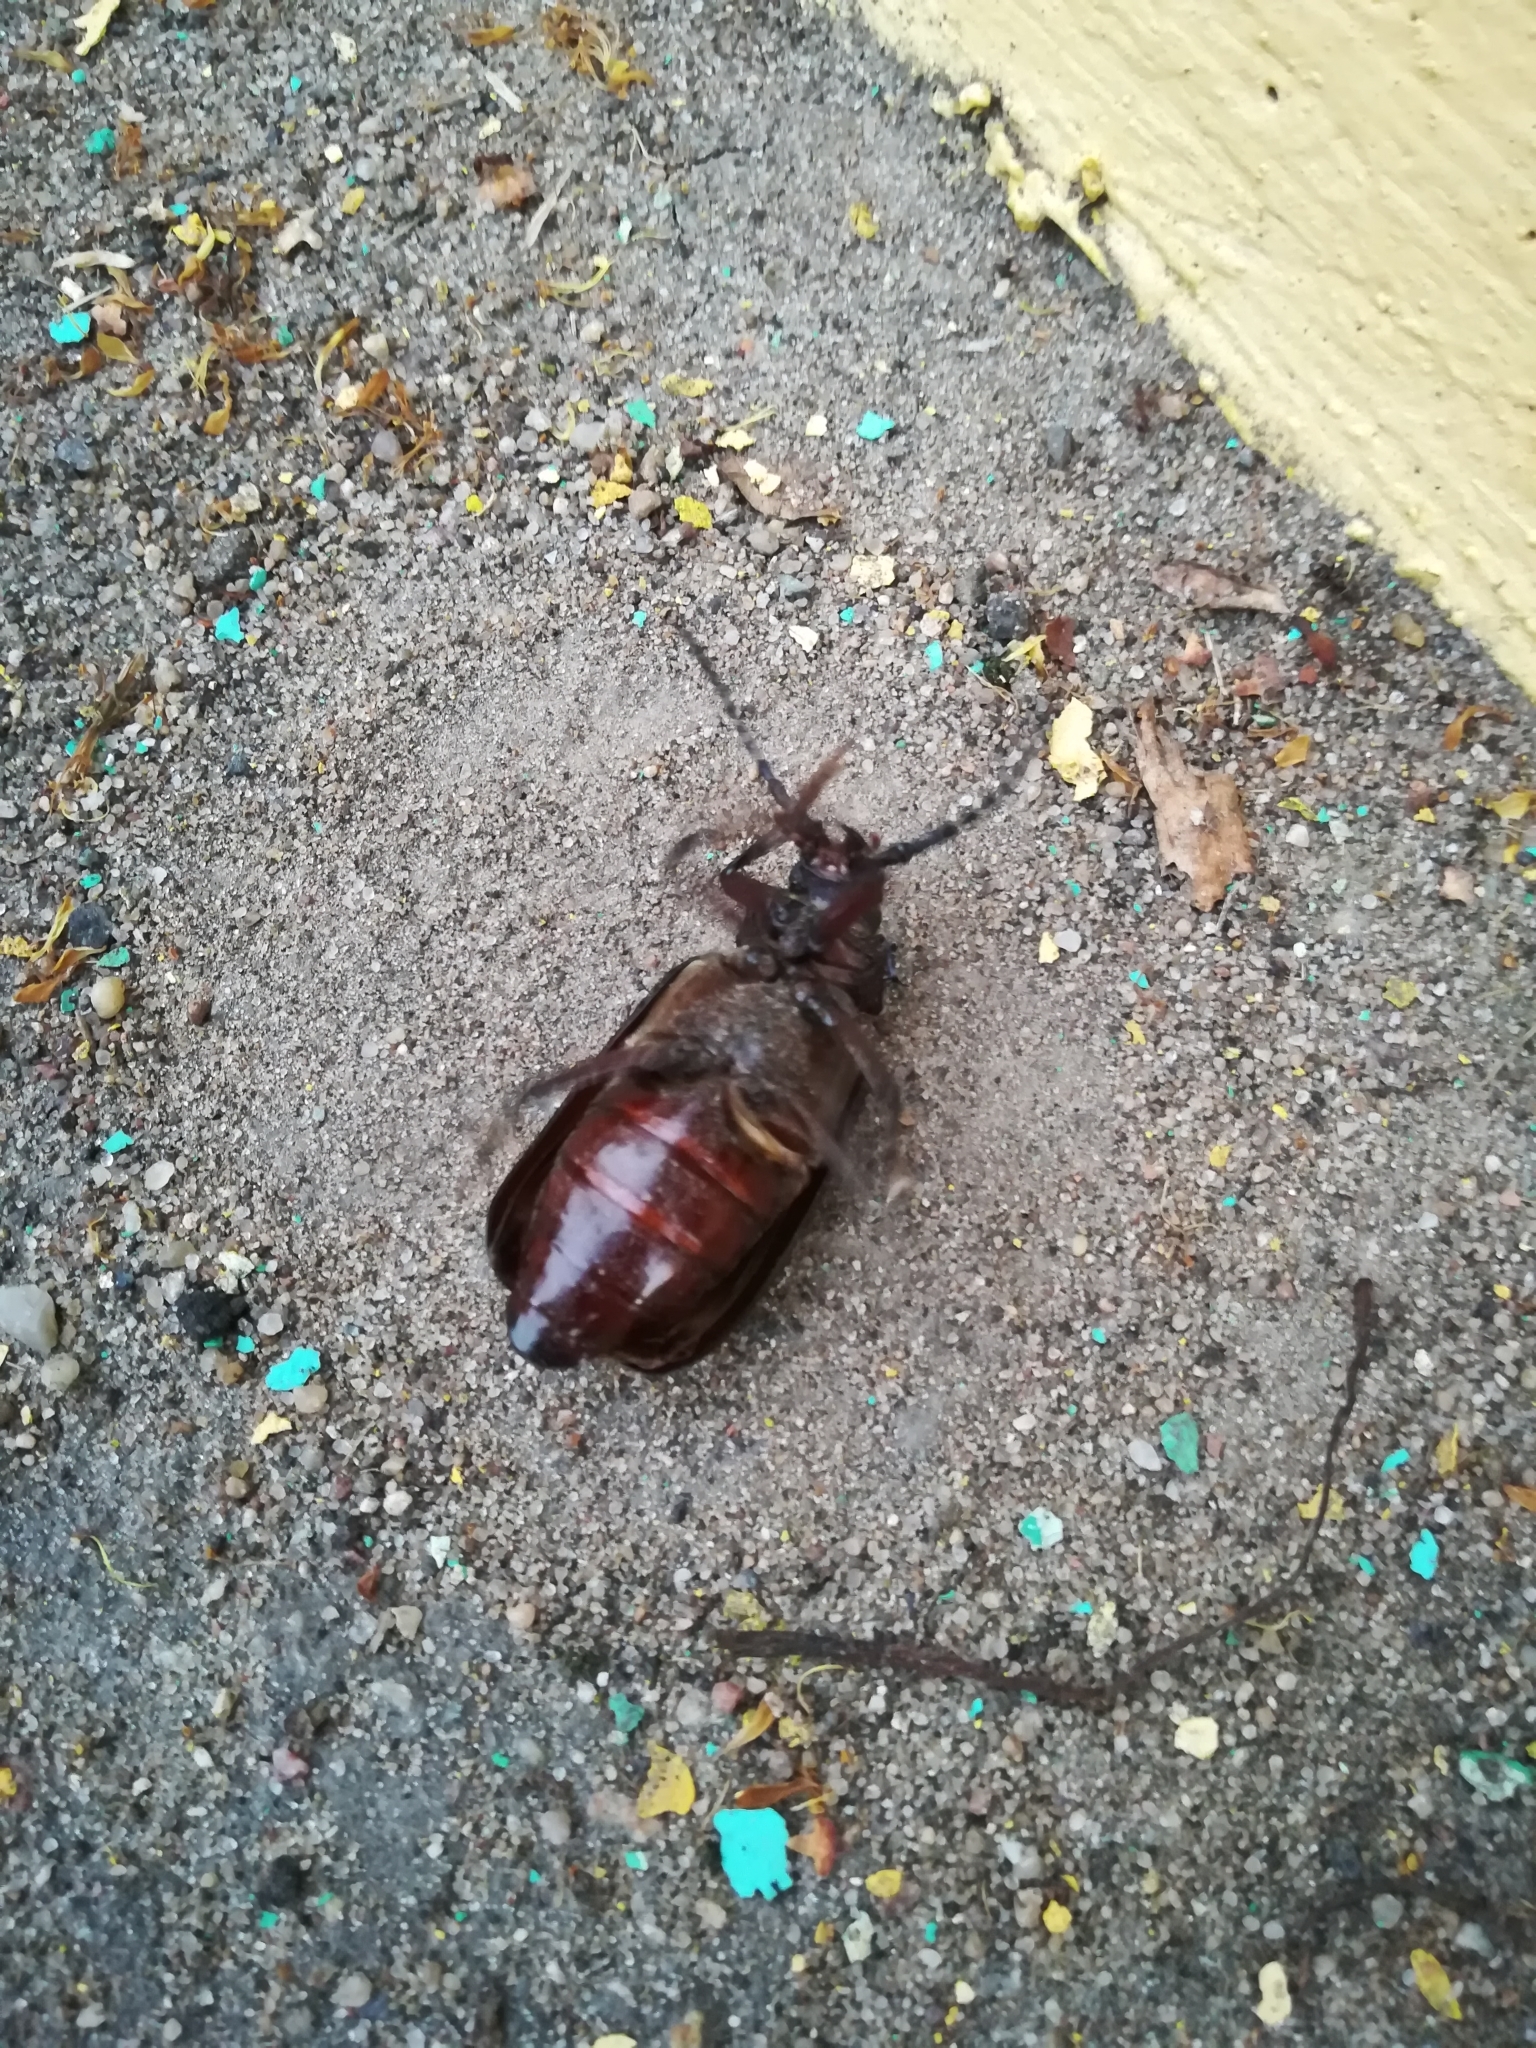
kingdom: Animalia
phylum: Arthropoda
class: Insecta
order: Coleoptera
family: Cerambycidae
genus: Prionus
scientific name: Prionus coriarius
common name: Tanner beetle
